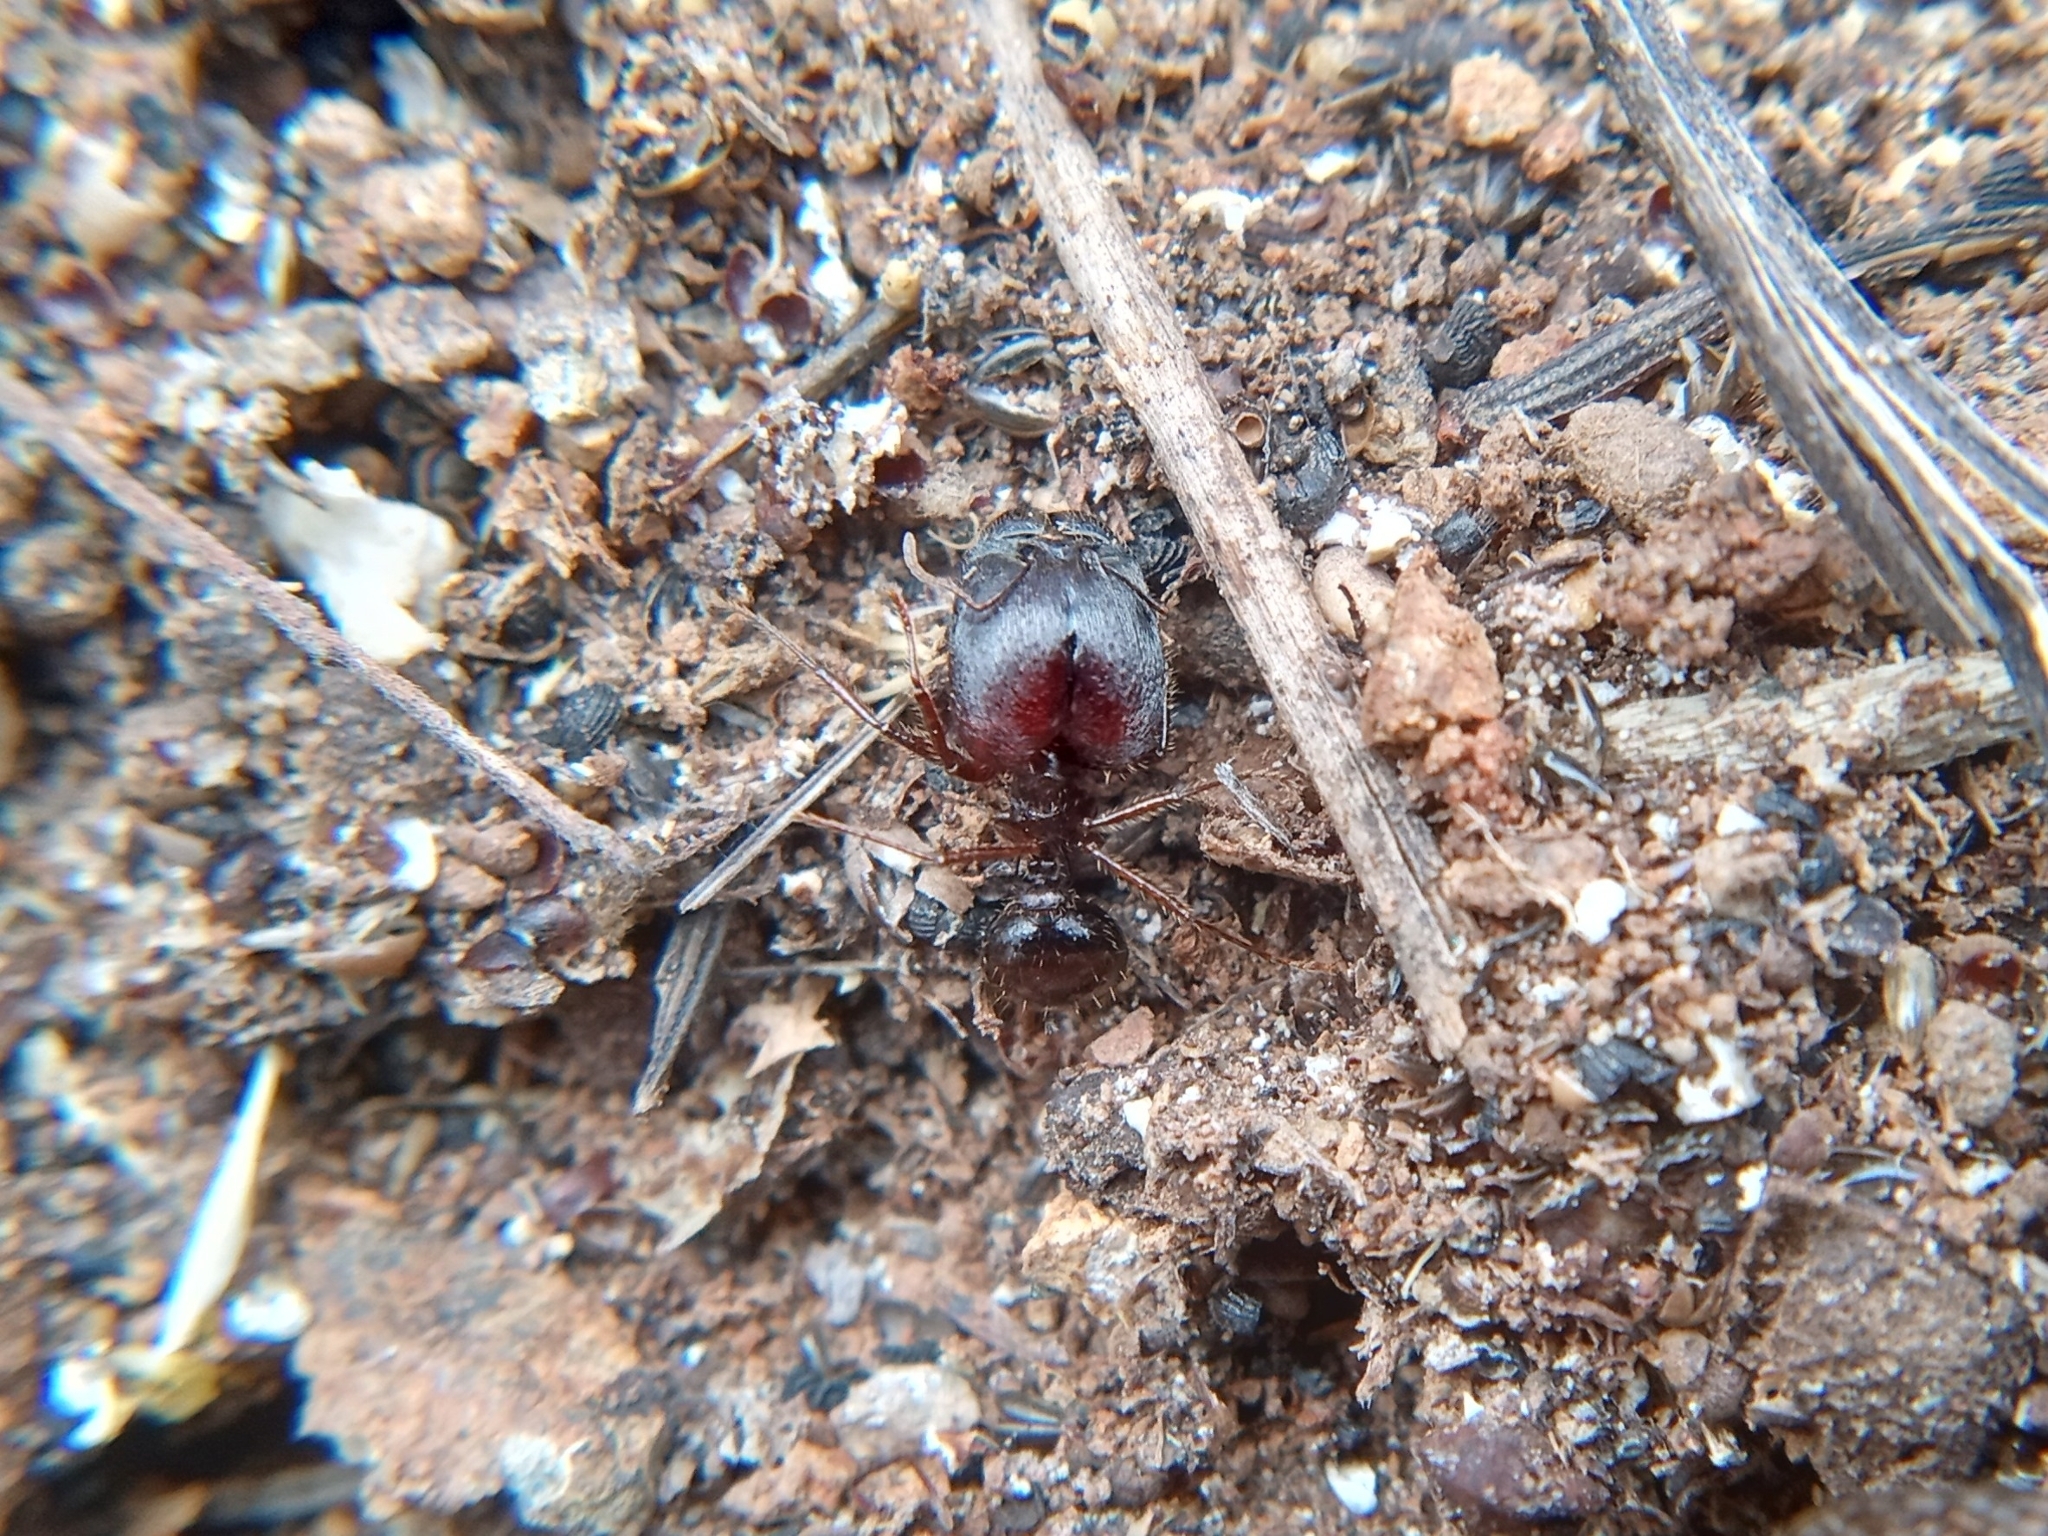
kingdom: Animalia
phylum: Arthropoda
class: Insecta
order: Hymenoptera
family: Formicidae
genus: Pheidole
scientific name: Pheidole rhea
